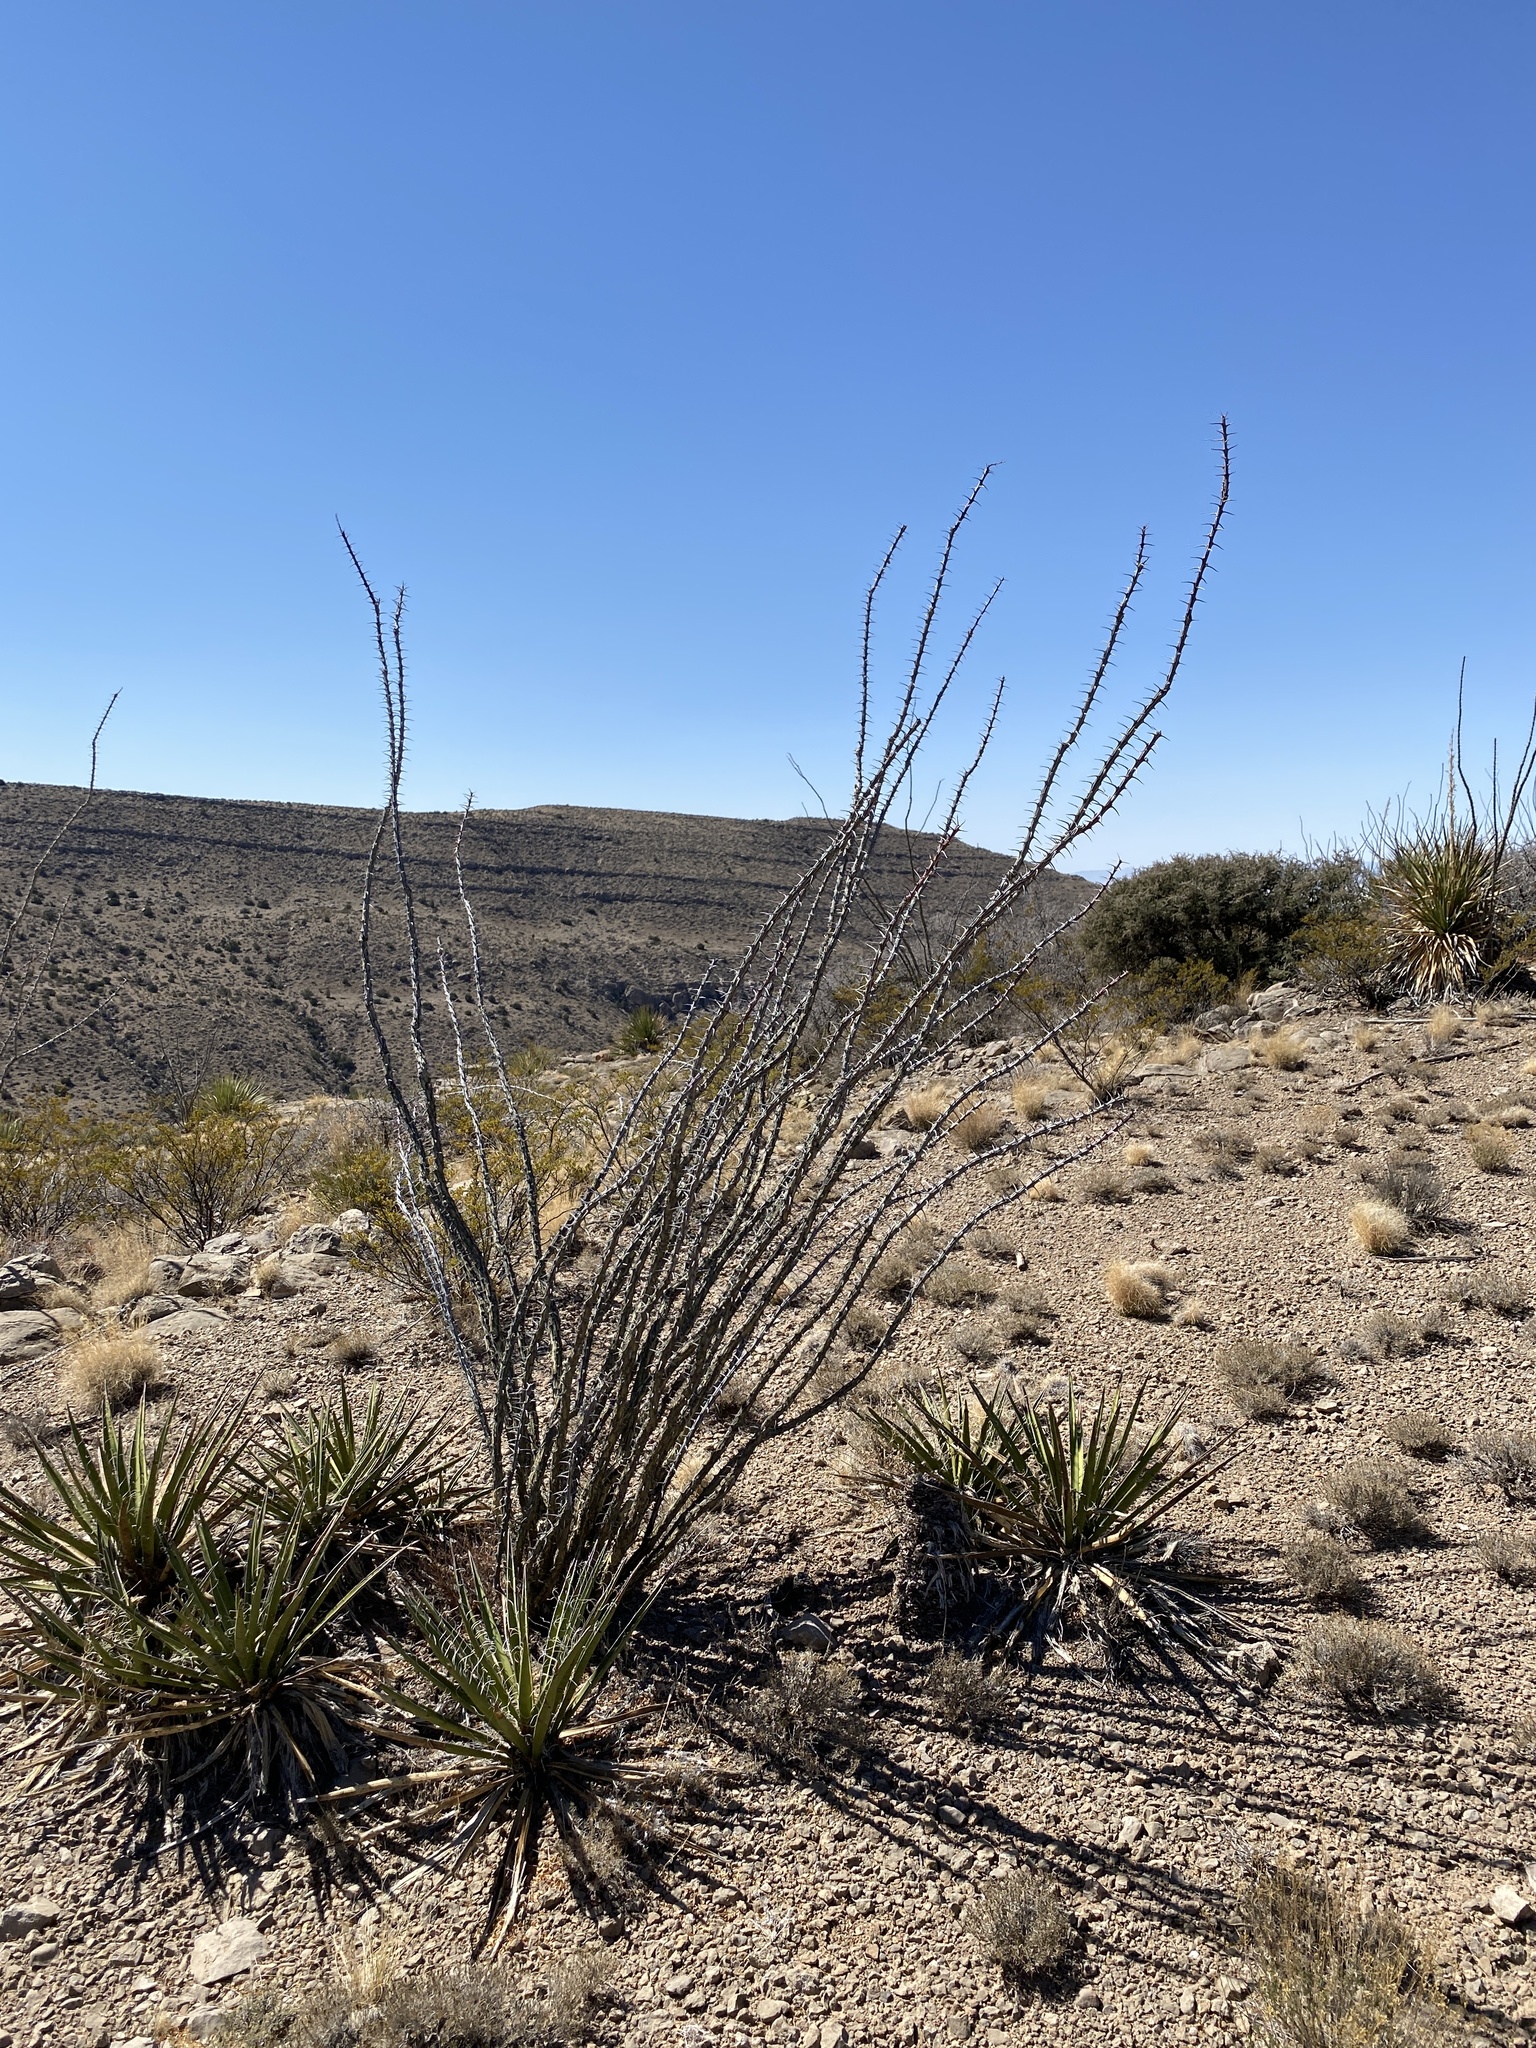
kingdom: Plantae
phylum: Tracheophyta
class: Magnoliopsida
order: Ericales
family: Fouquieriaceae
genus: Fouquieria
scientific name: Fouquieria splendens
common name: Vine-cactus
